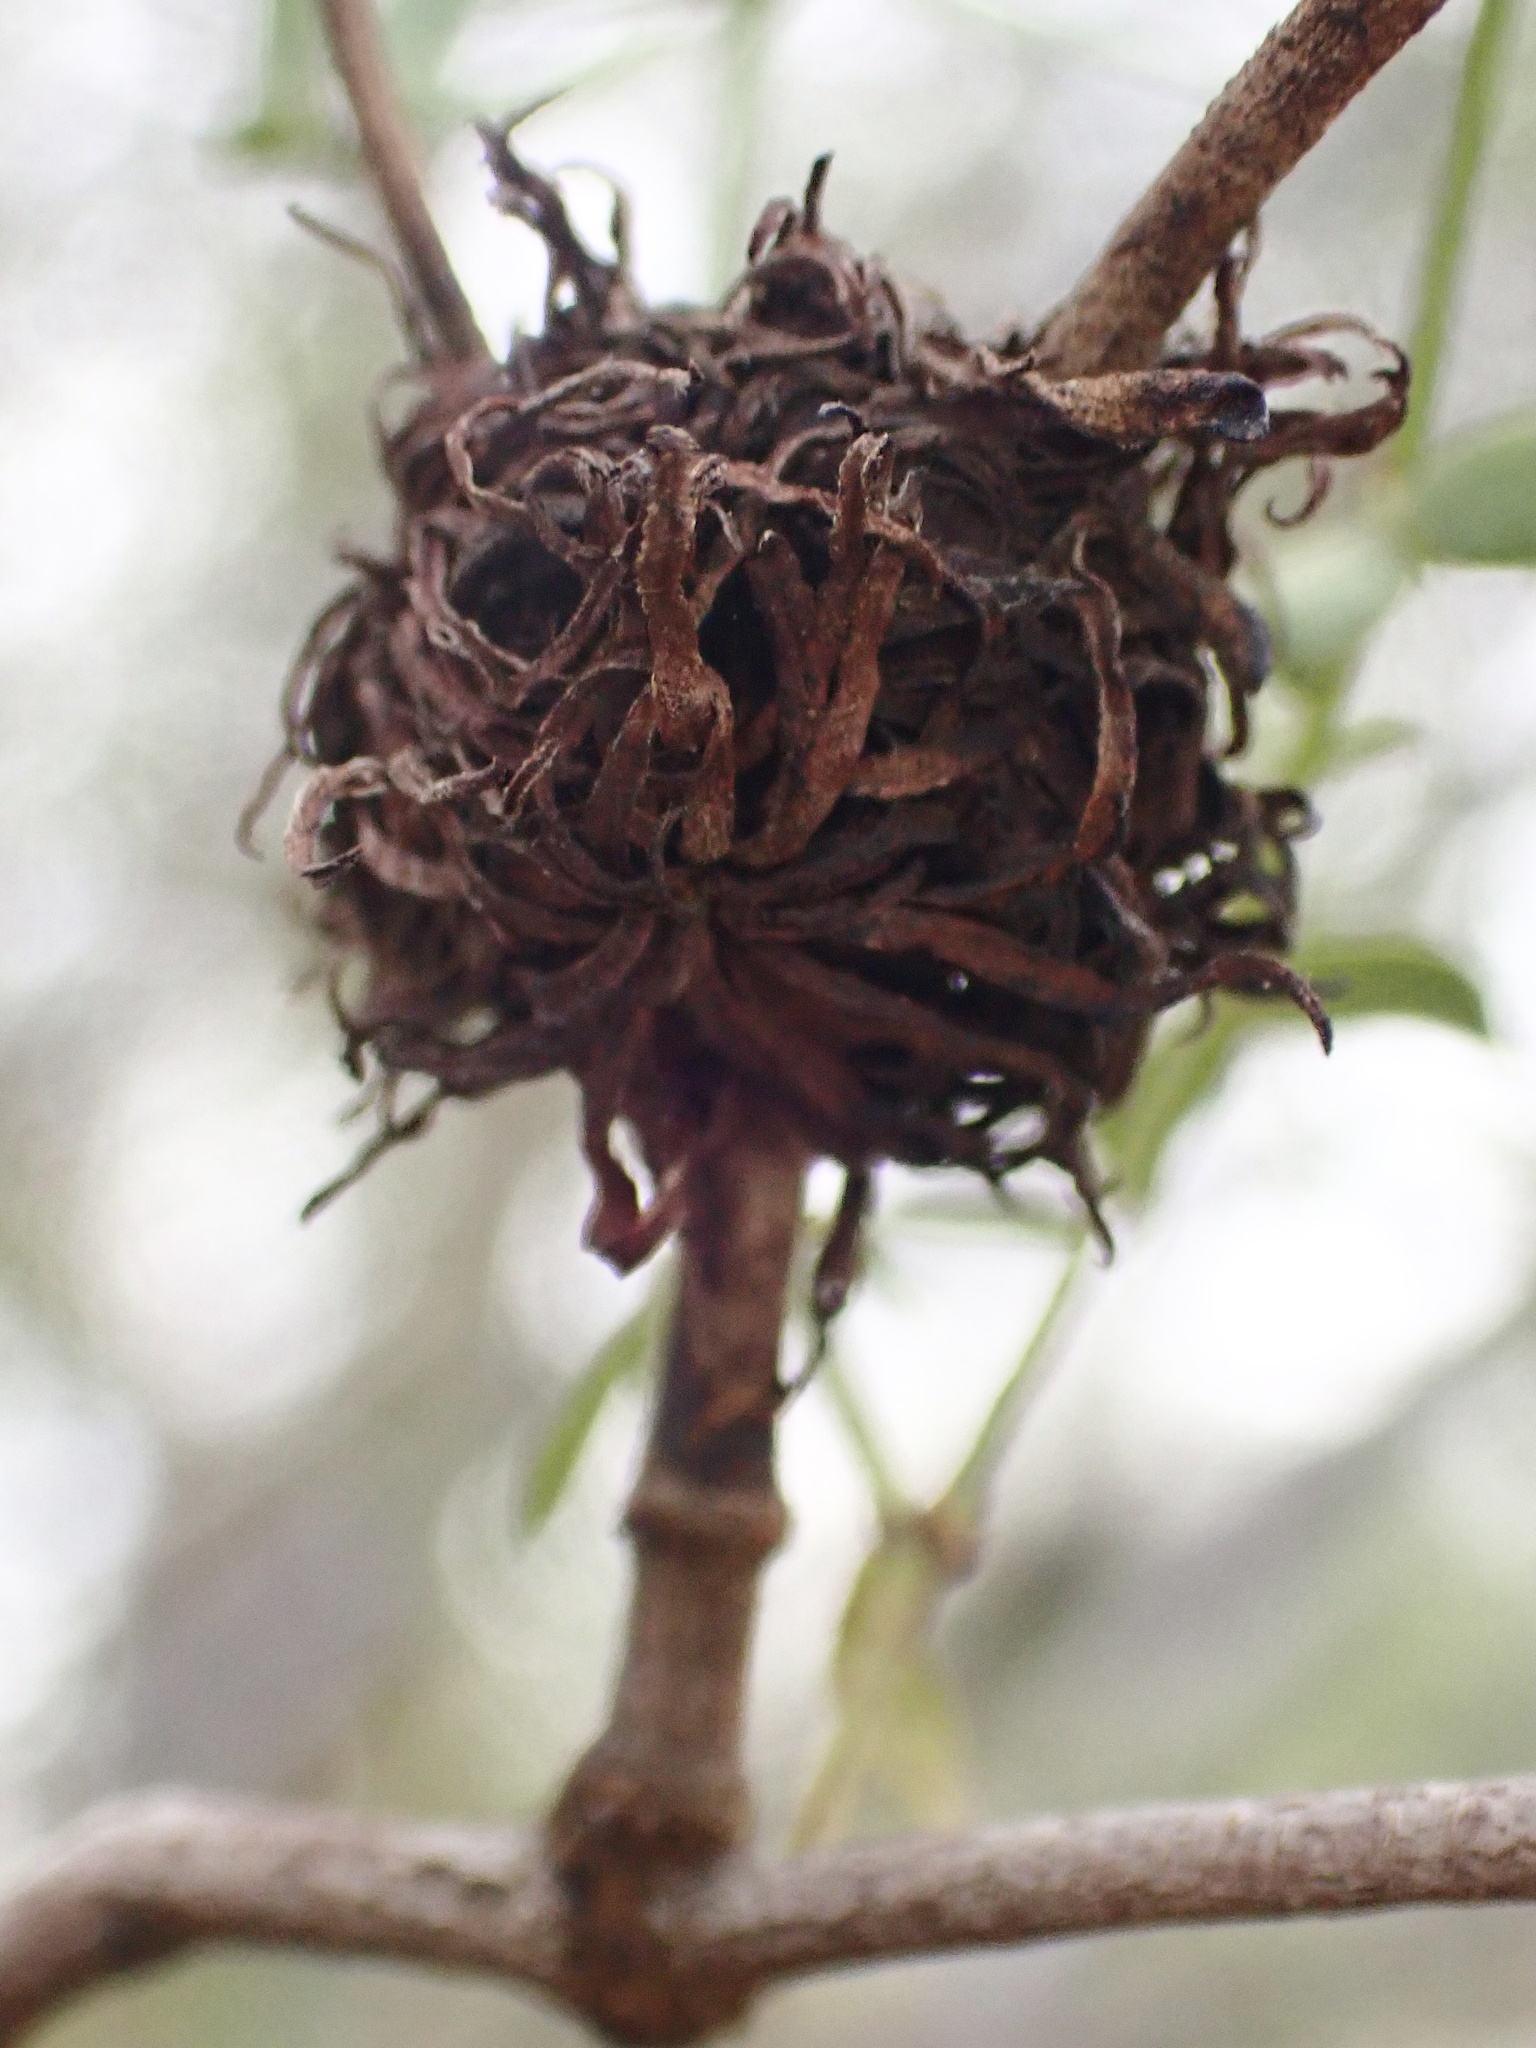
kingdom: Animalia
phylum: Arthropoda
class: Insecta
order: Diptera
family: Cecidomyiidae
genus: Asphondylia
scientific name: Asphondylia auripila
